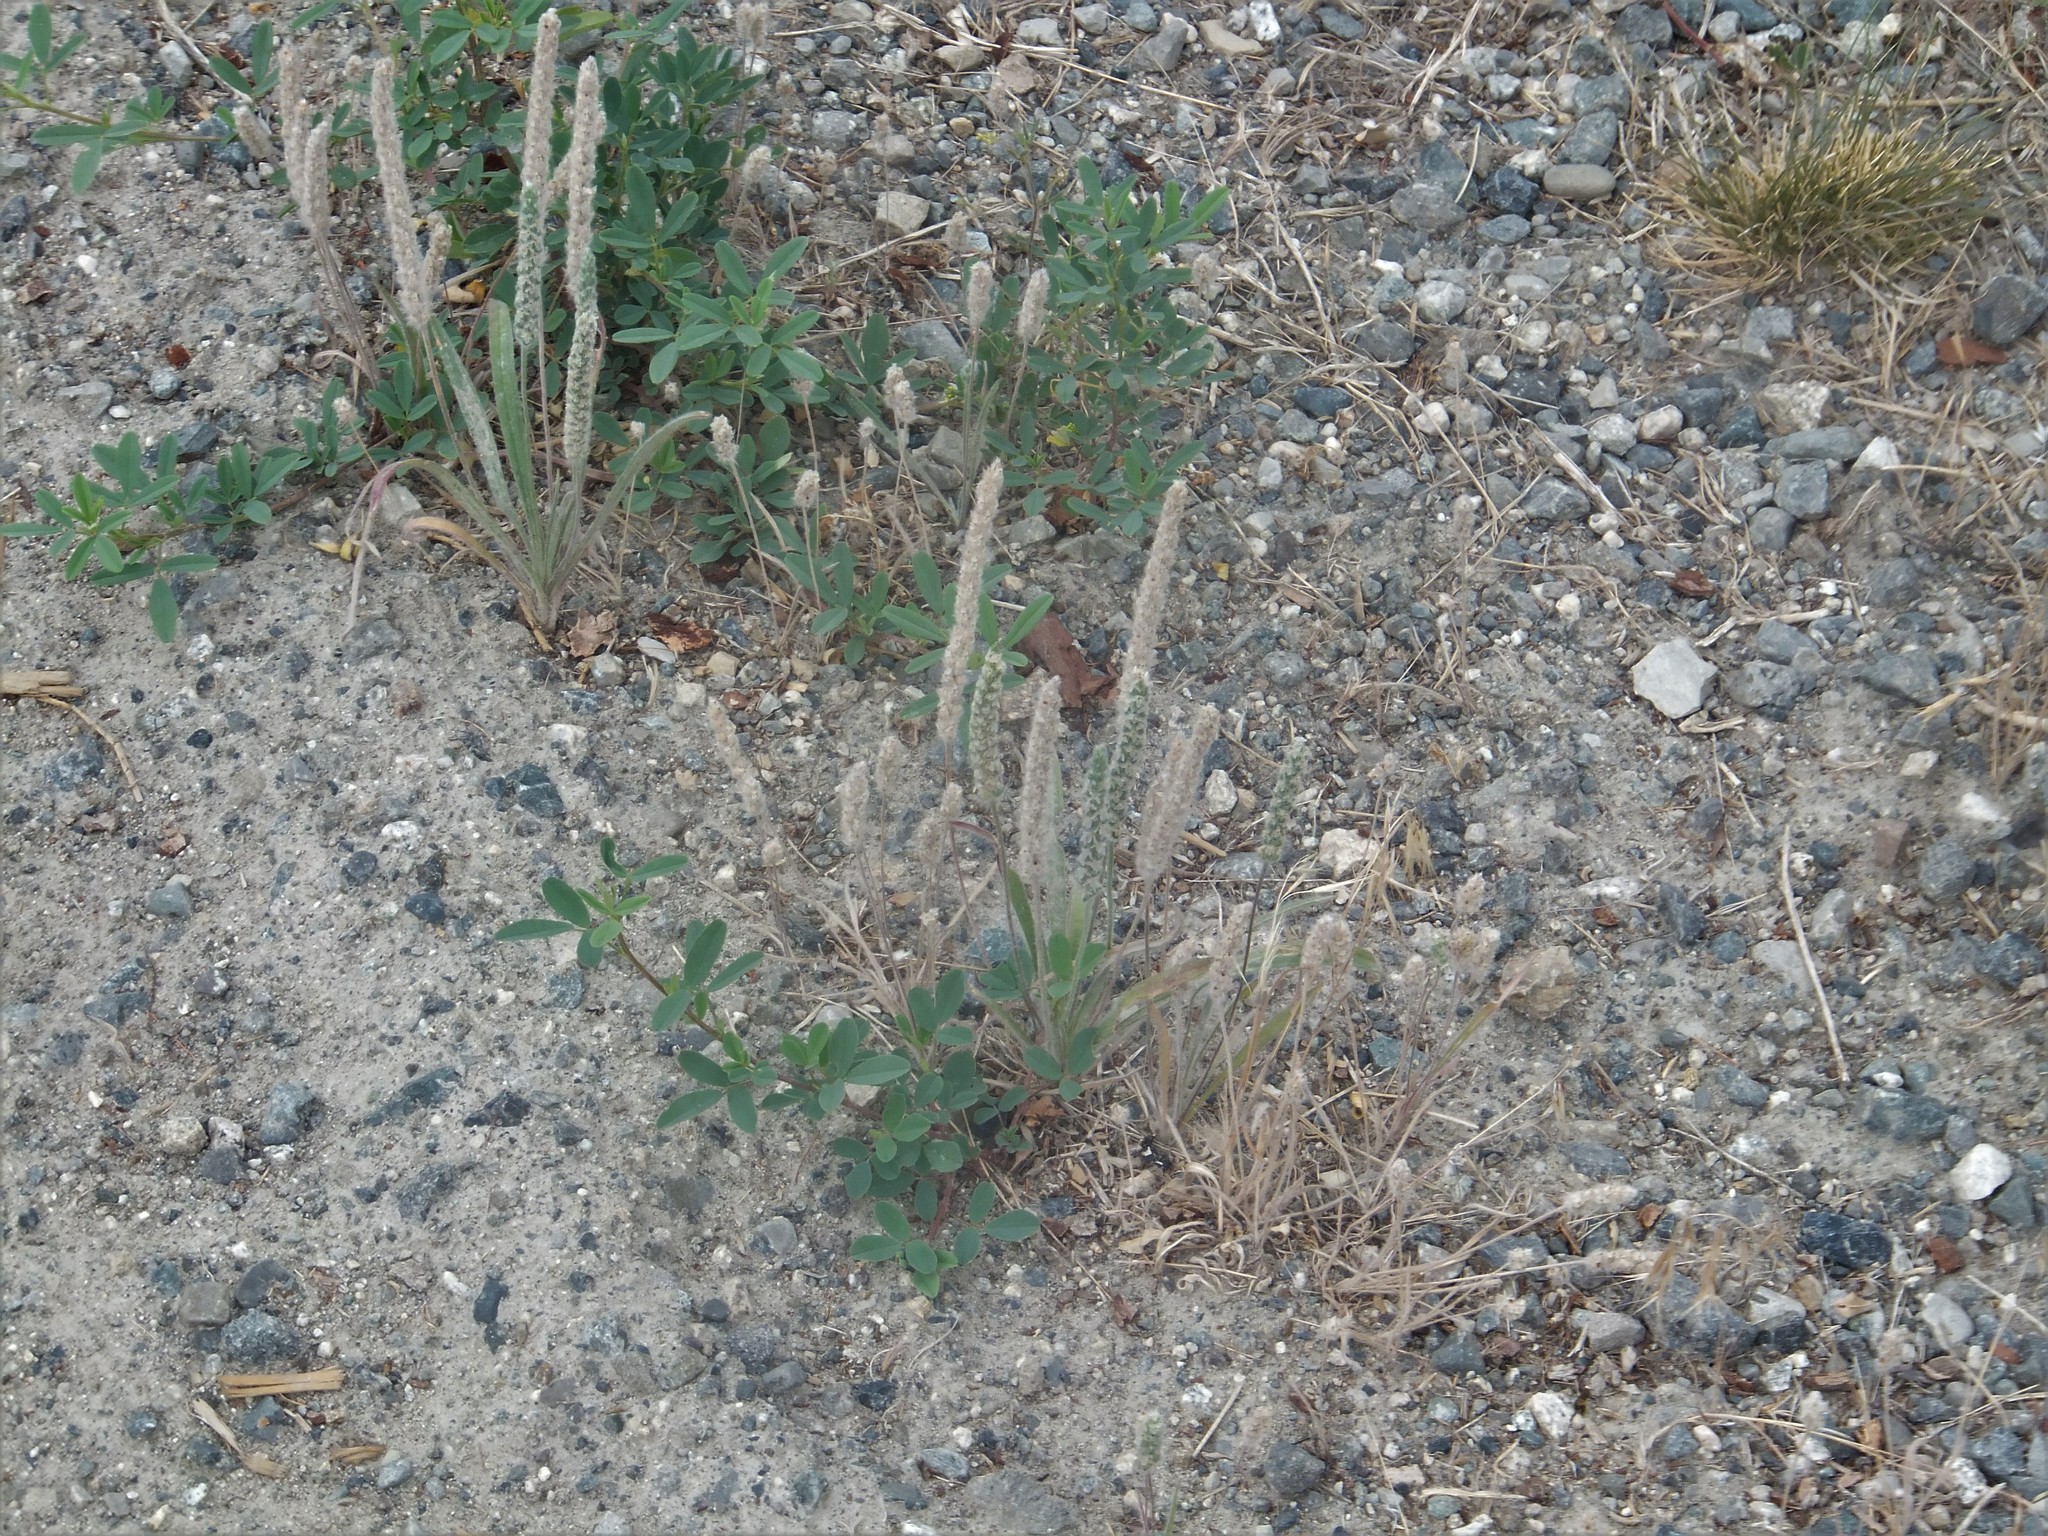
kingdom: Plantae
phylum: Tracheophyta
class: Magnoliopsida
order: Lamiales
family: Plantaginaceae
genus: Plantago
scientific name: Plantago patagonica
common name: Patagonia indian-wheat
